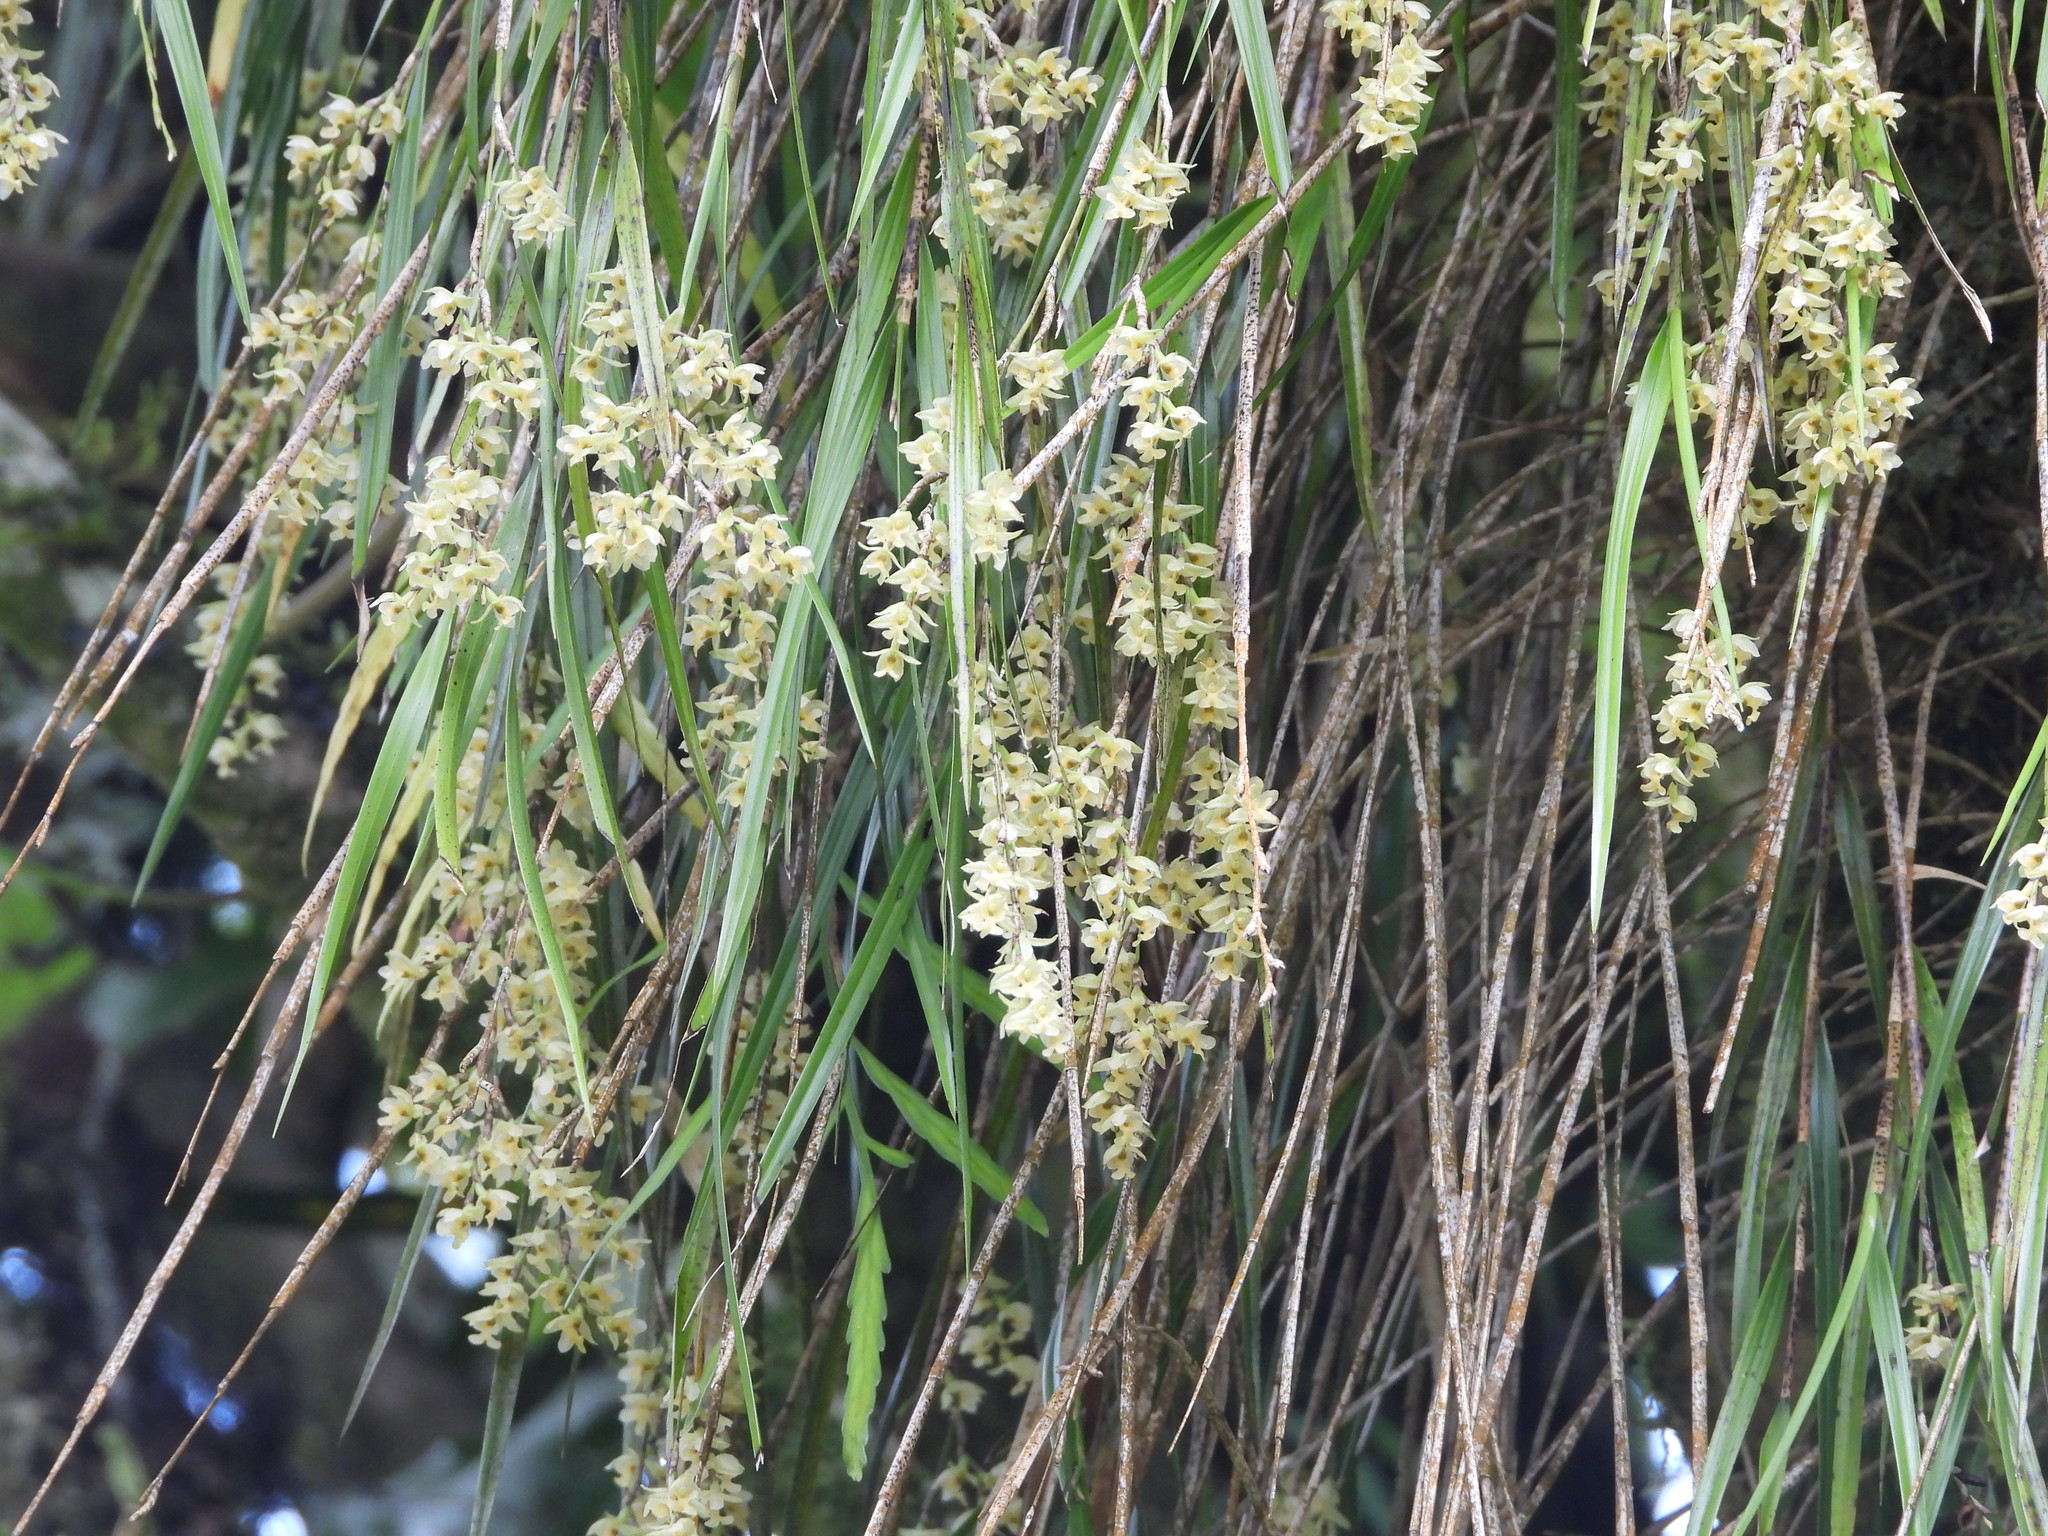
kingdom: Plantae
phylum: Tracheophyta
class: Liliopsida
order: Asparagales
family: Orchidaceae
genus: Earina
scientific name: Earina mucronata
